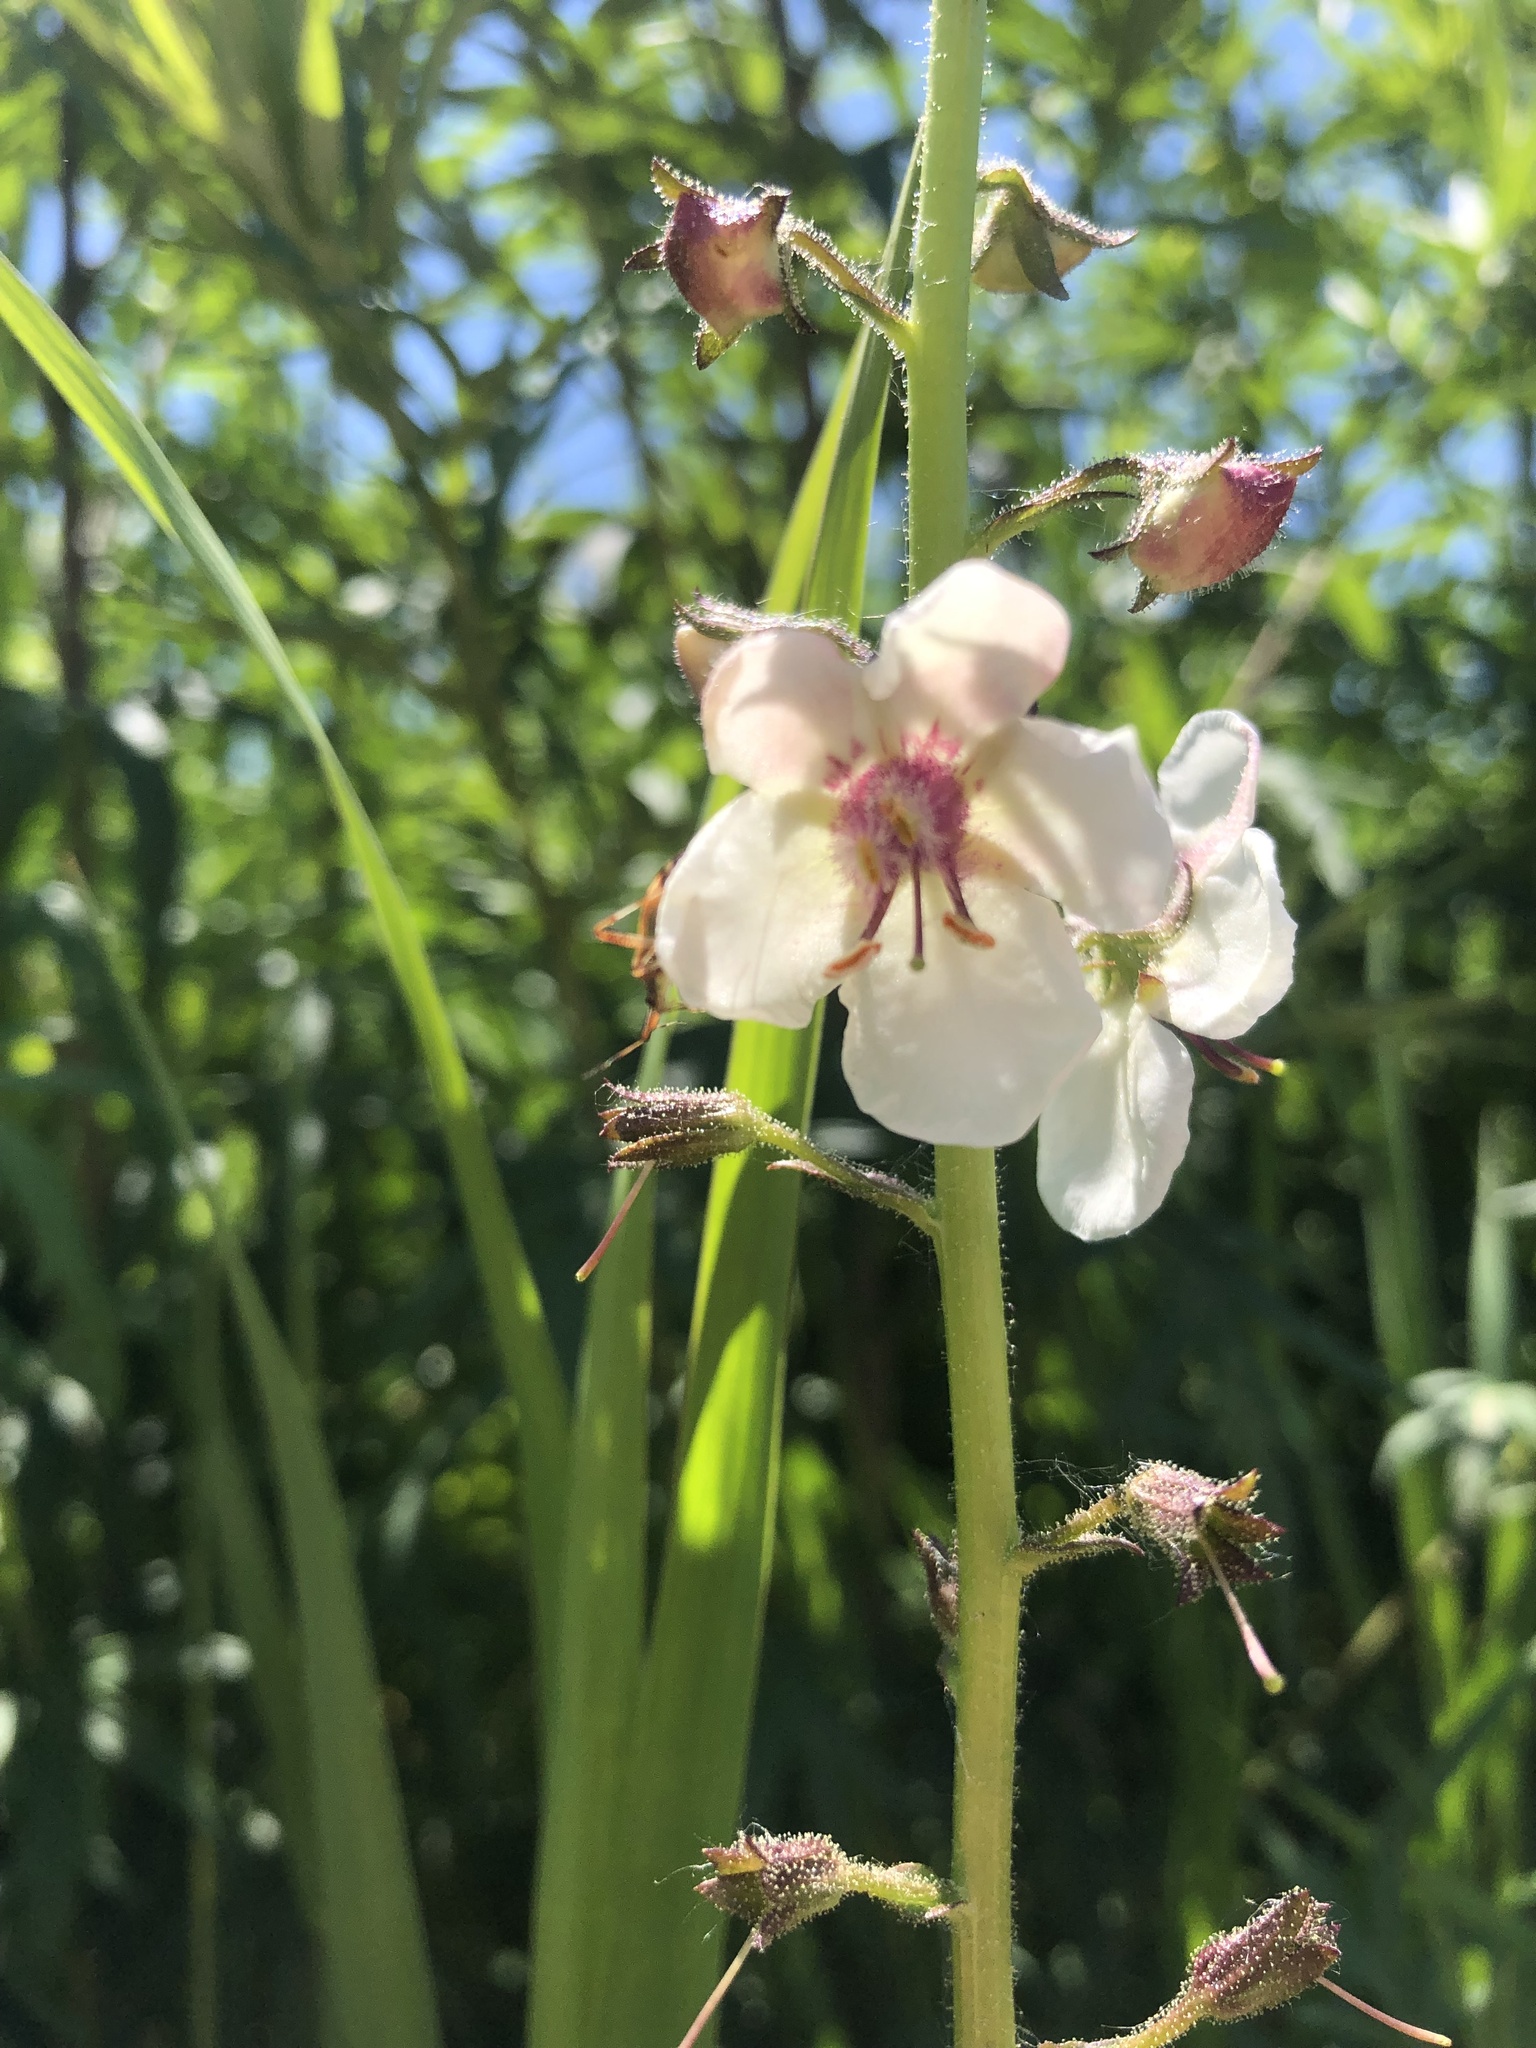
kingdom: Plantae
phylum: Tracheophyta
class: Magnoliopsida
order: Lamiales
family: Scrophulariaceae
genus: Verbascum
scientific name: Verbascum blattaria
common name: Moth mullein
